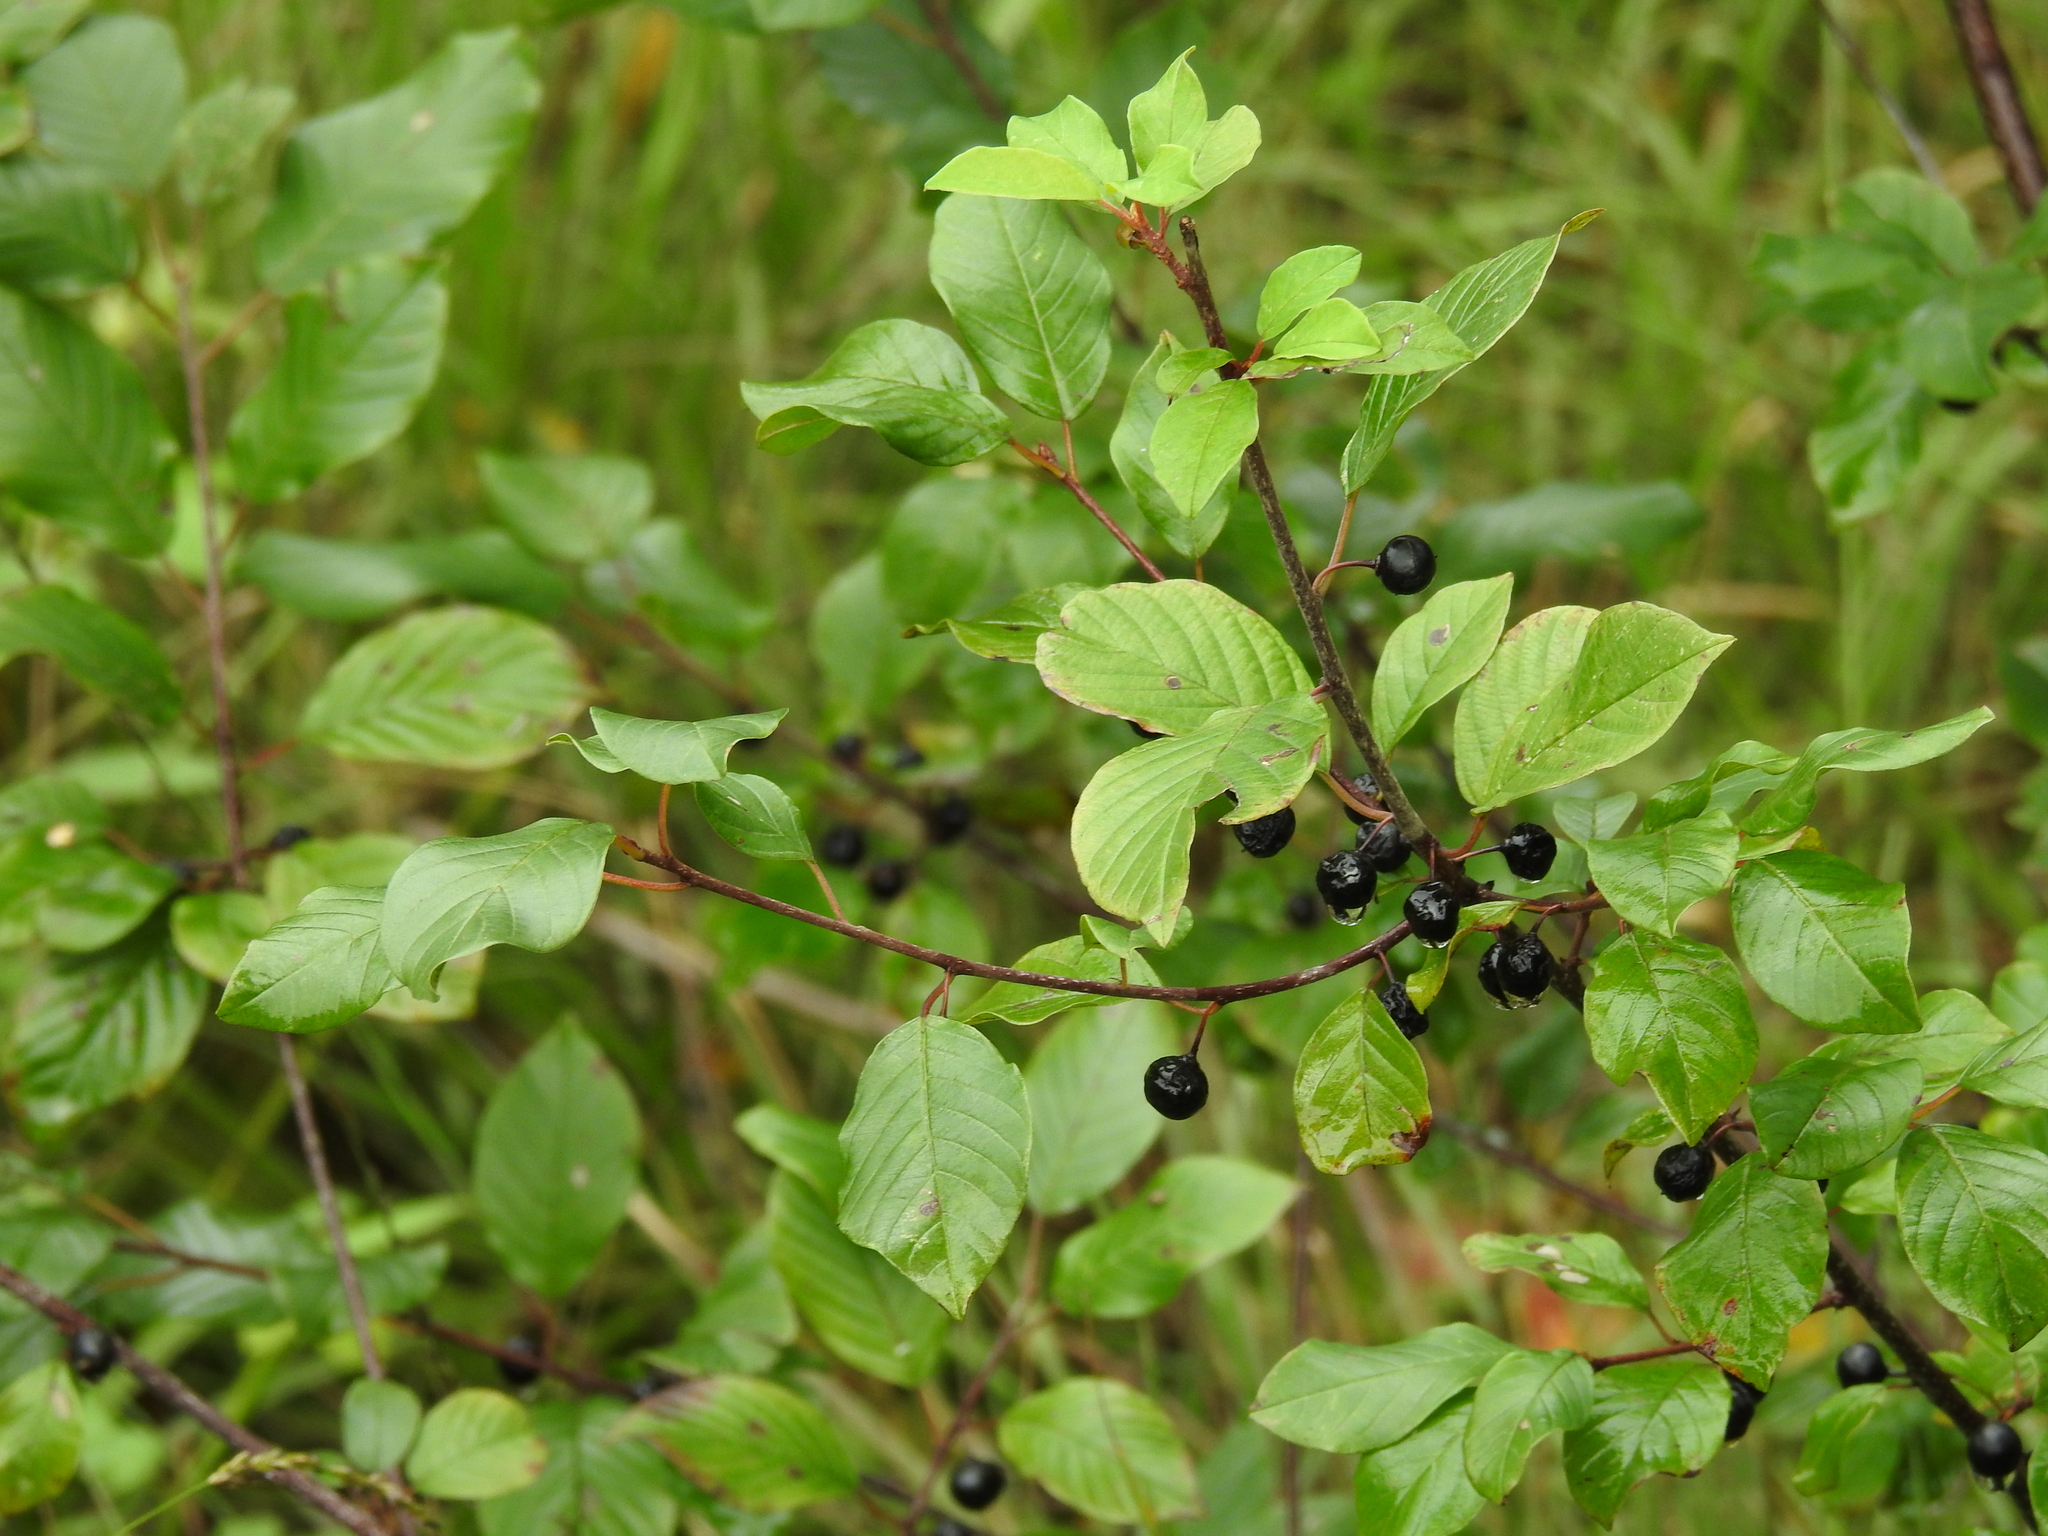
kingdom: Plantae
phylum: Tracheophyta
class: Magnoliopsida
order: Rosales
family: Rhamnaceae
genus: Frangula
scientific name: Frangula alnus
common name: Alder buckthorn
